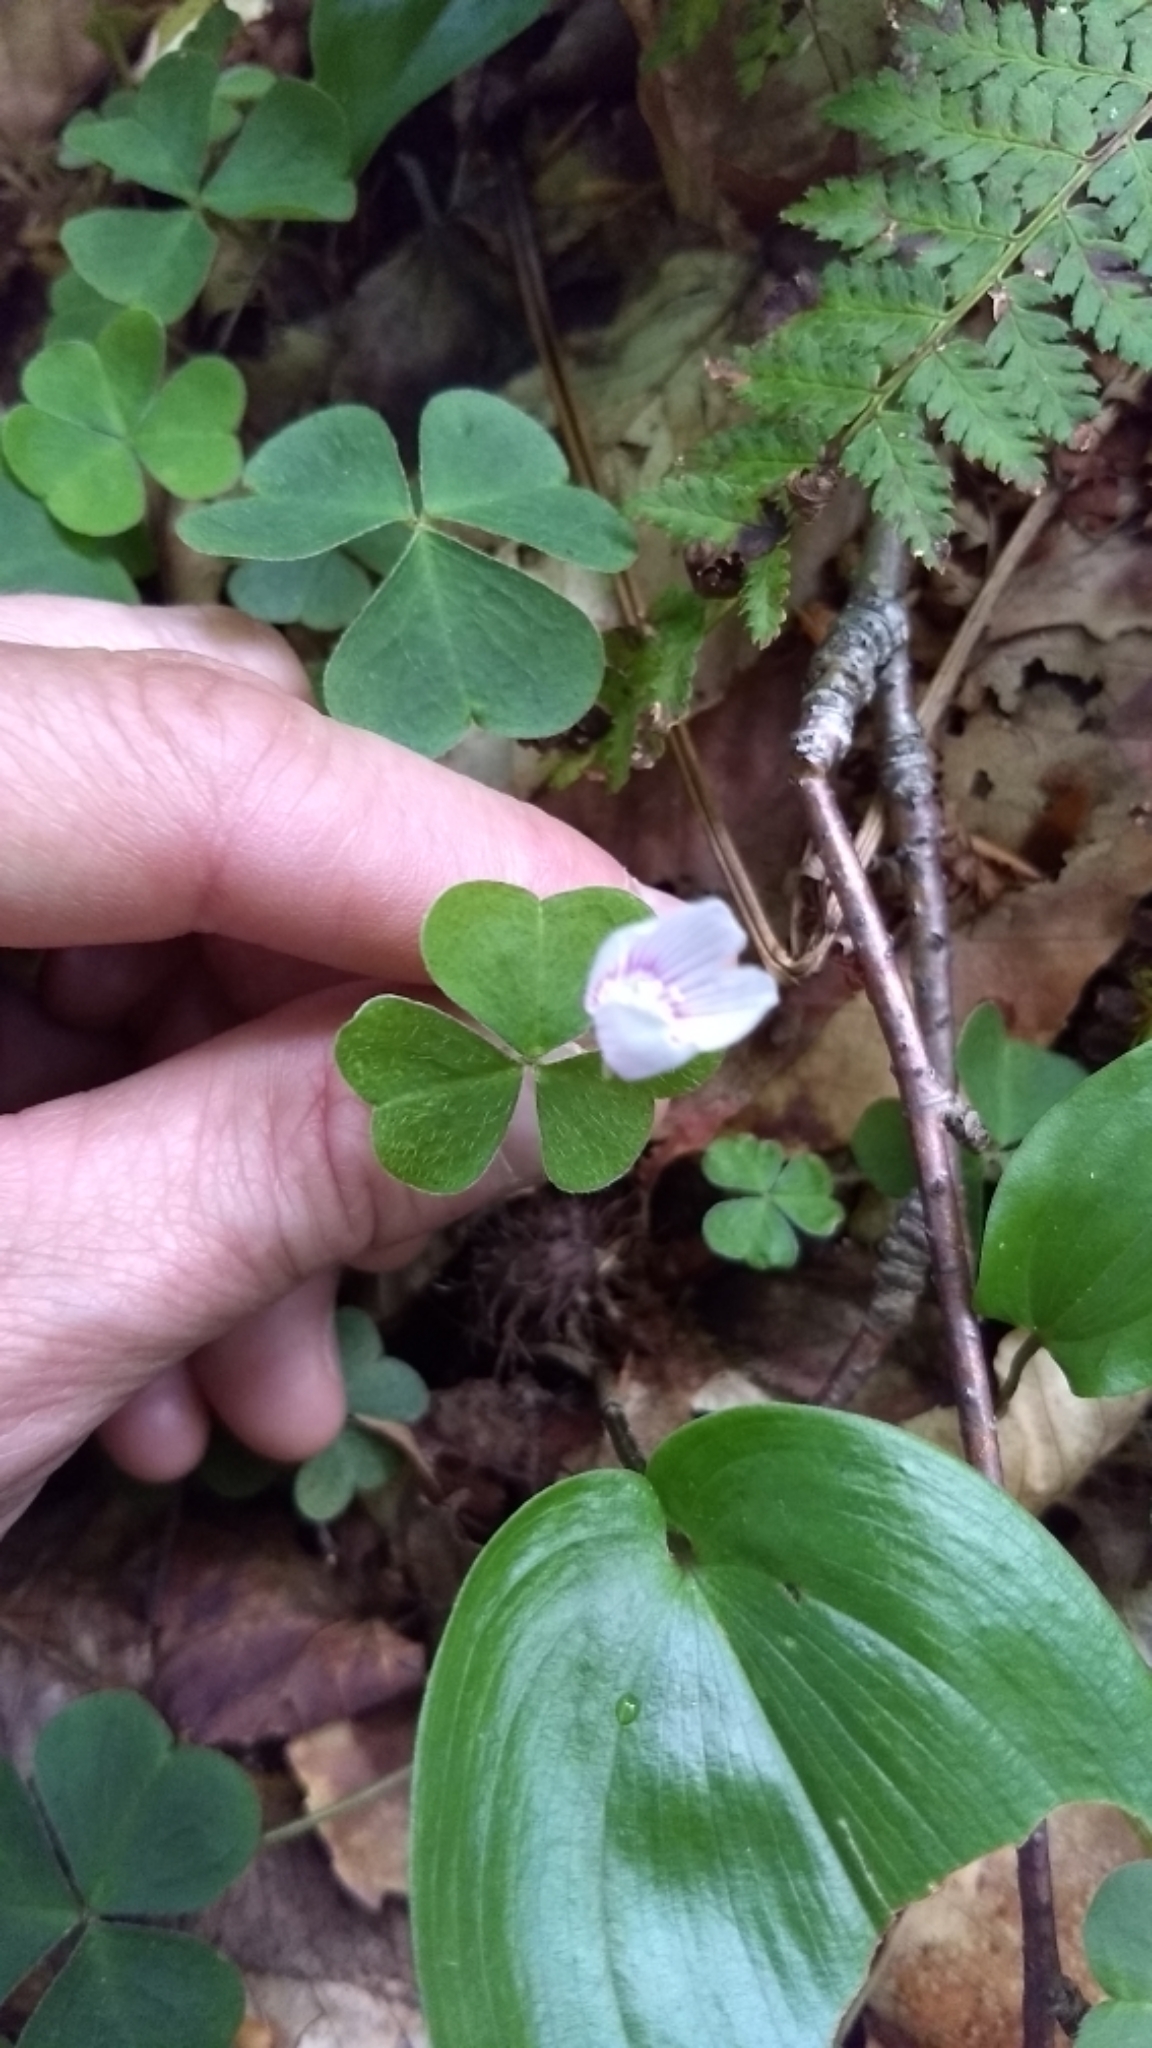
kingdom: Plantae
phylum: Tracheophyta
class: Magnoliopsida
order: Oxalidales
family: Oxalidaceae
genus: Oxalis
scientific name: Oxalis montana
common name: American wood-sorrel
